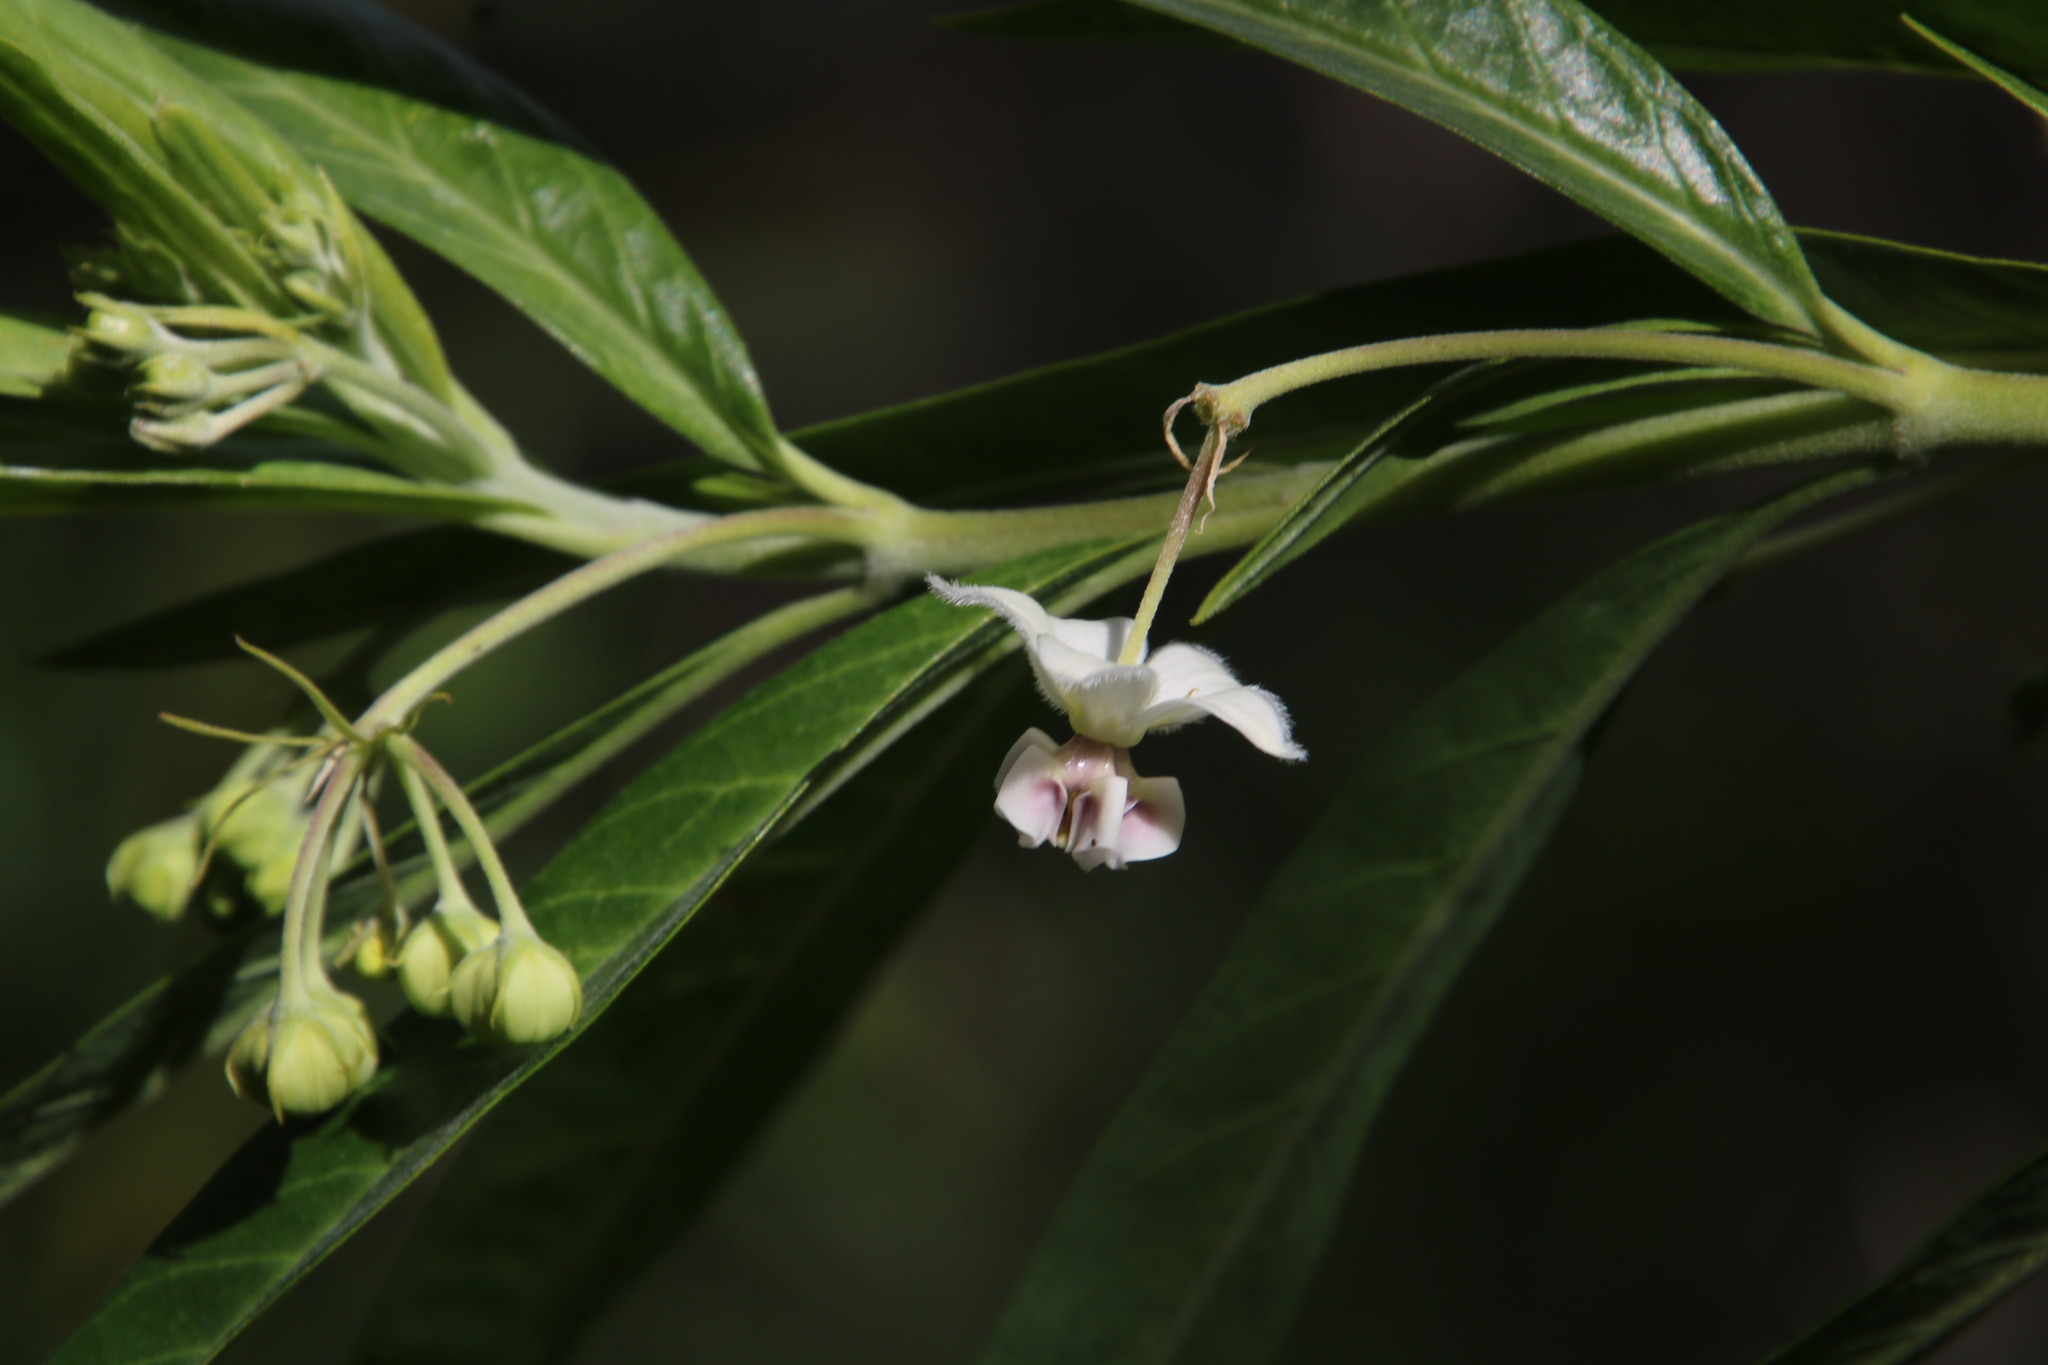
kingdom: Plantae
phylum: Tracheophyta
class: Magnoliopsida
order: Gentianales
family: Apocynaceae
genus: Gomphocarpus
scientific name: Gomphocarpus physocarpus
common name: Balloon cotton bush
